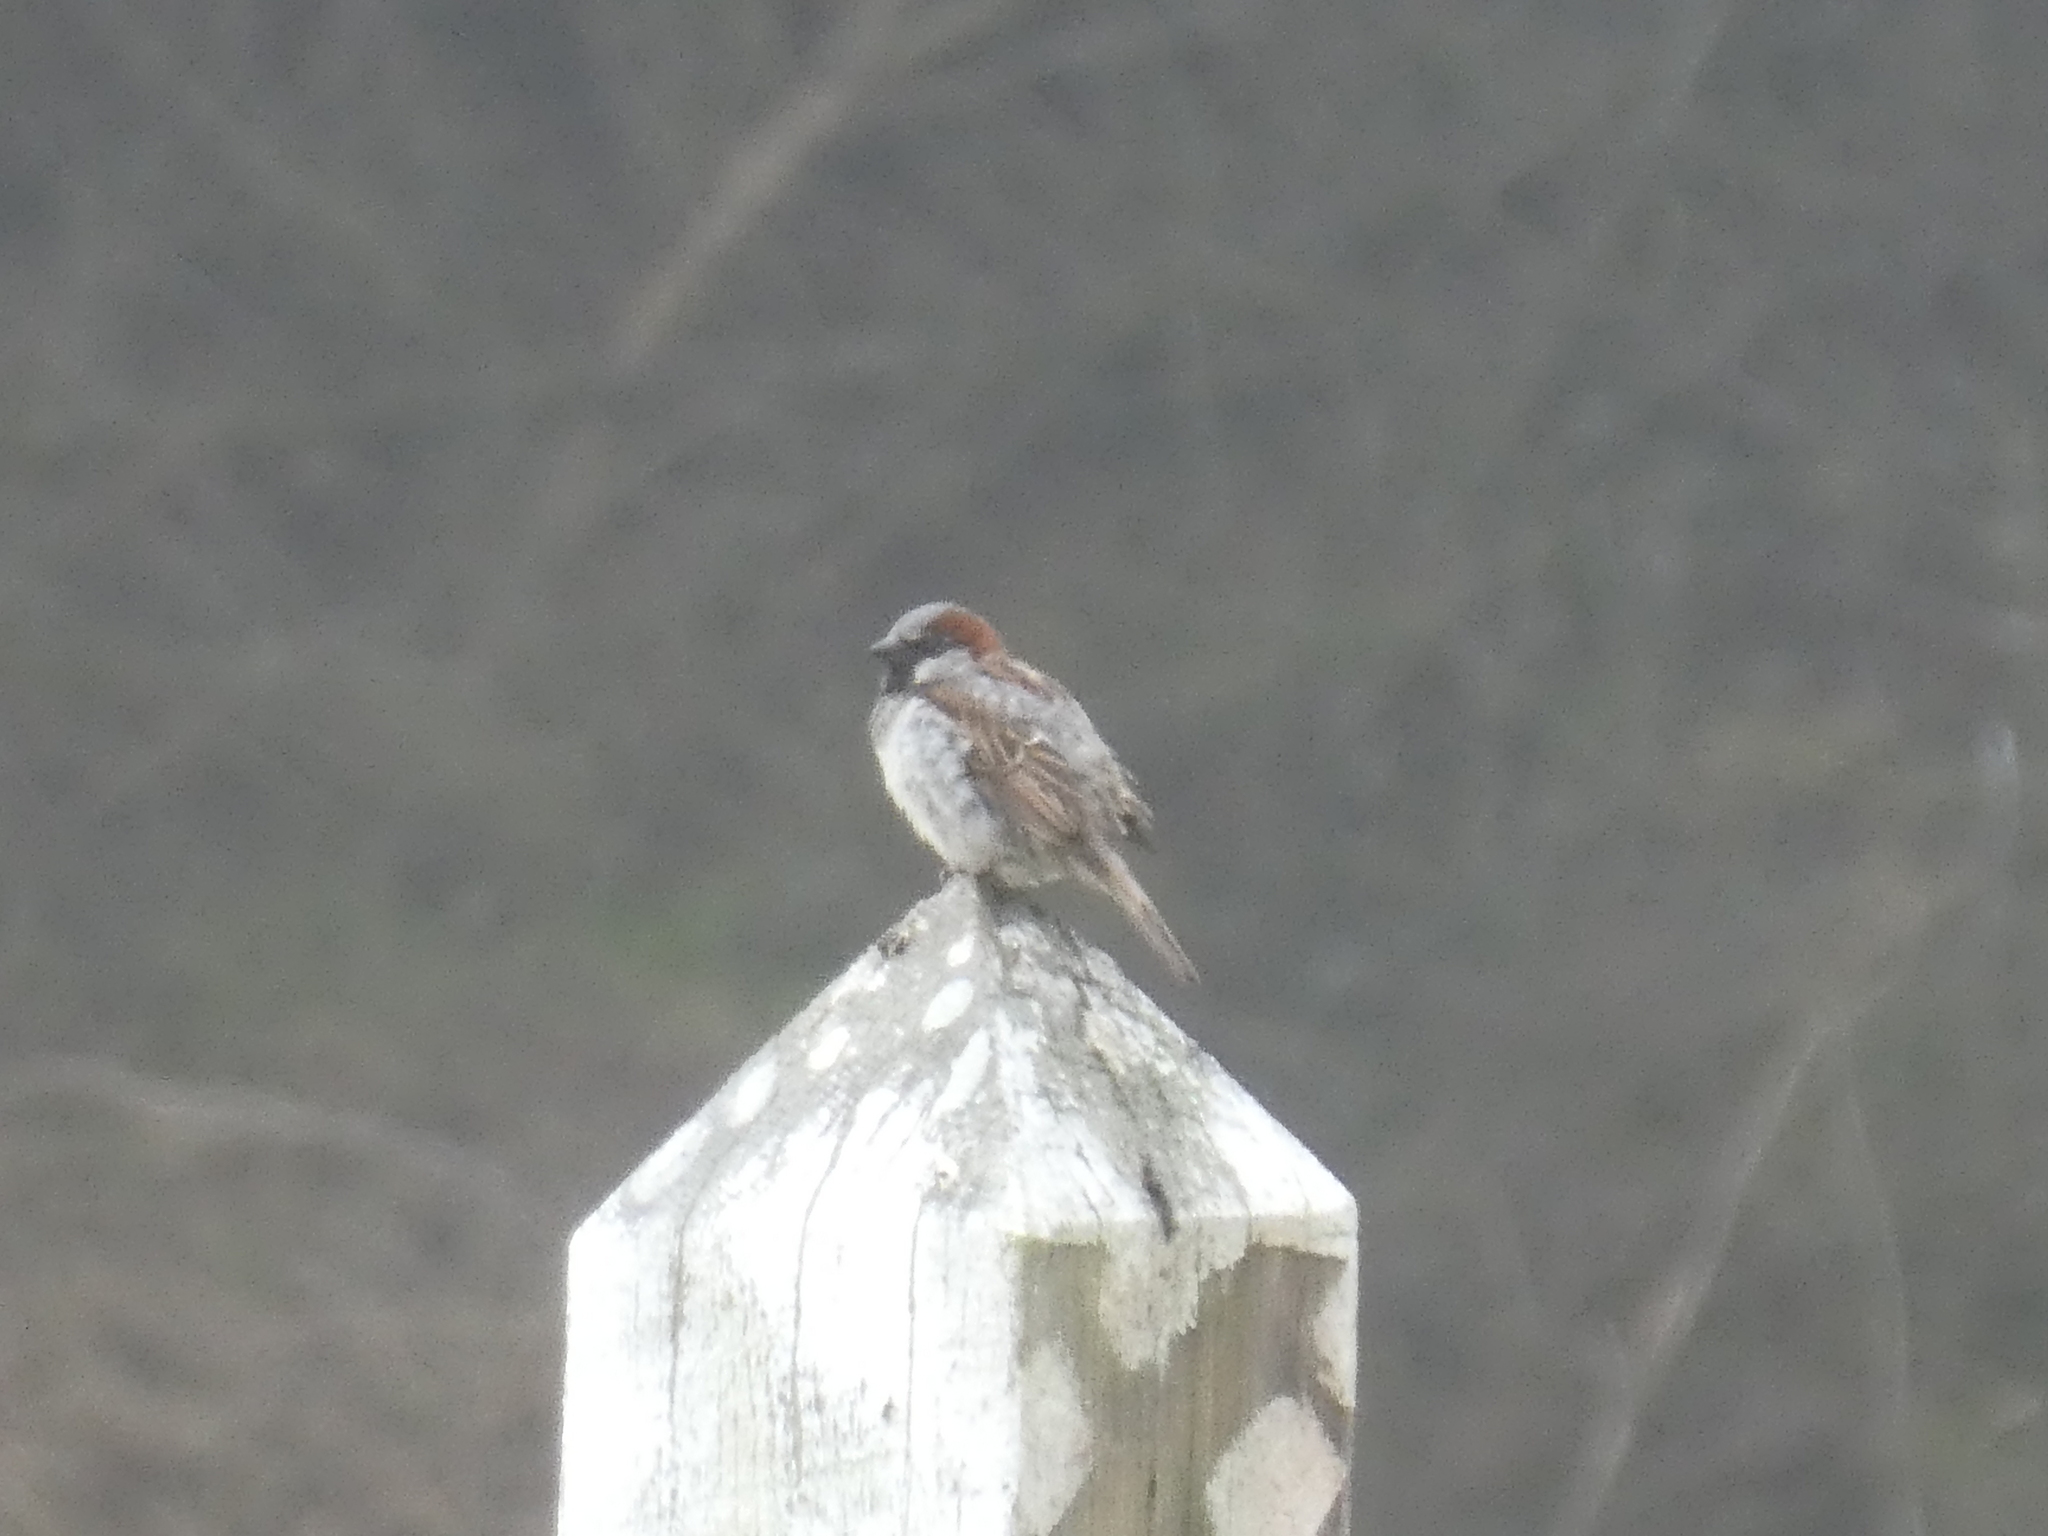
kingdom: Animalia
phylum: Chordata
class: Aves
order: Passeriformes
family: Passeridae
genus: Passer
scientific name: Passer domesticus
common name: House sparrow
